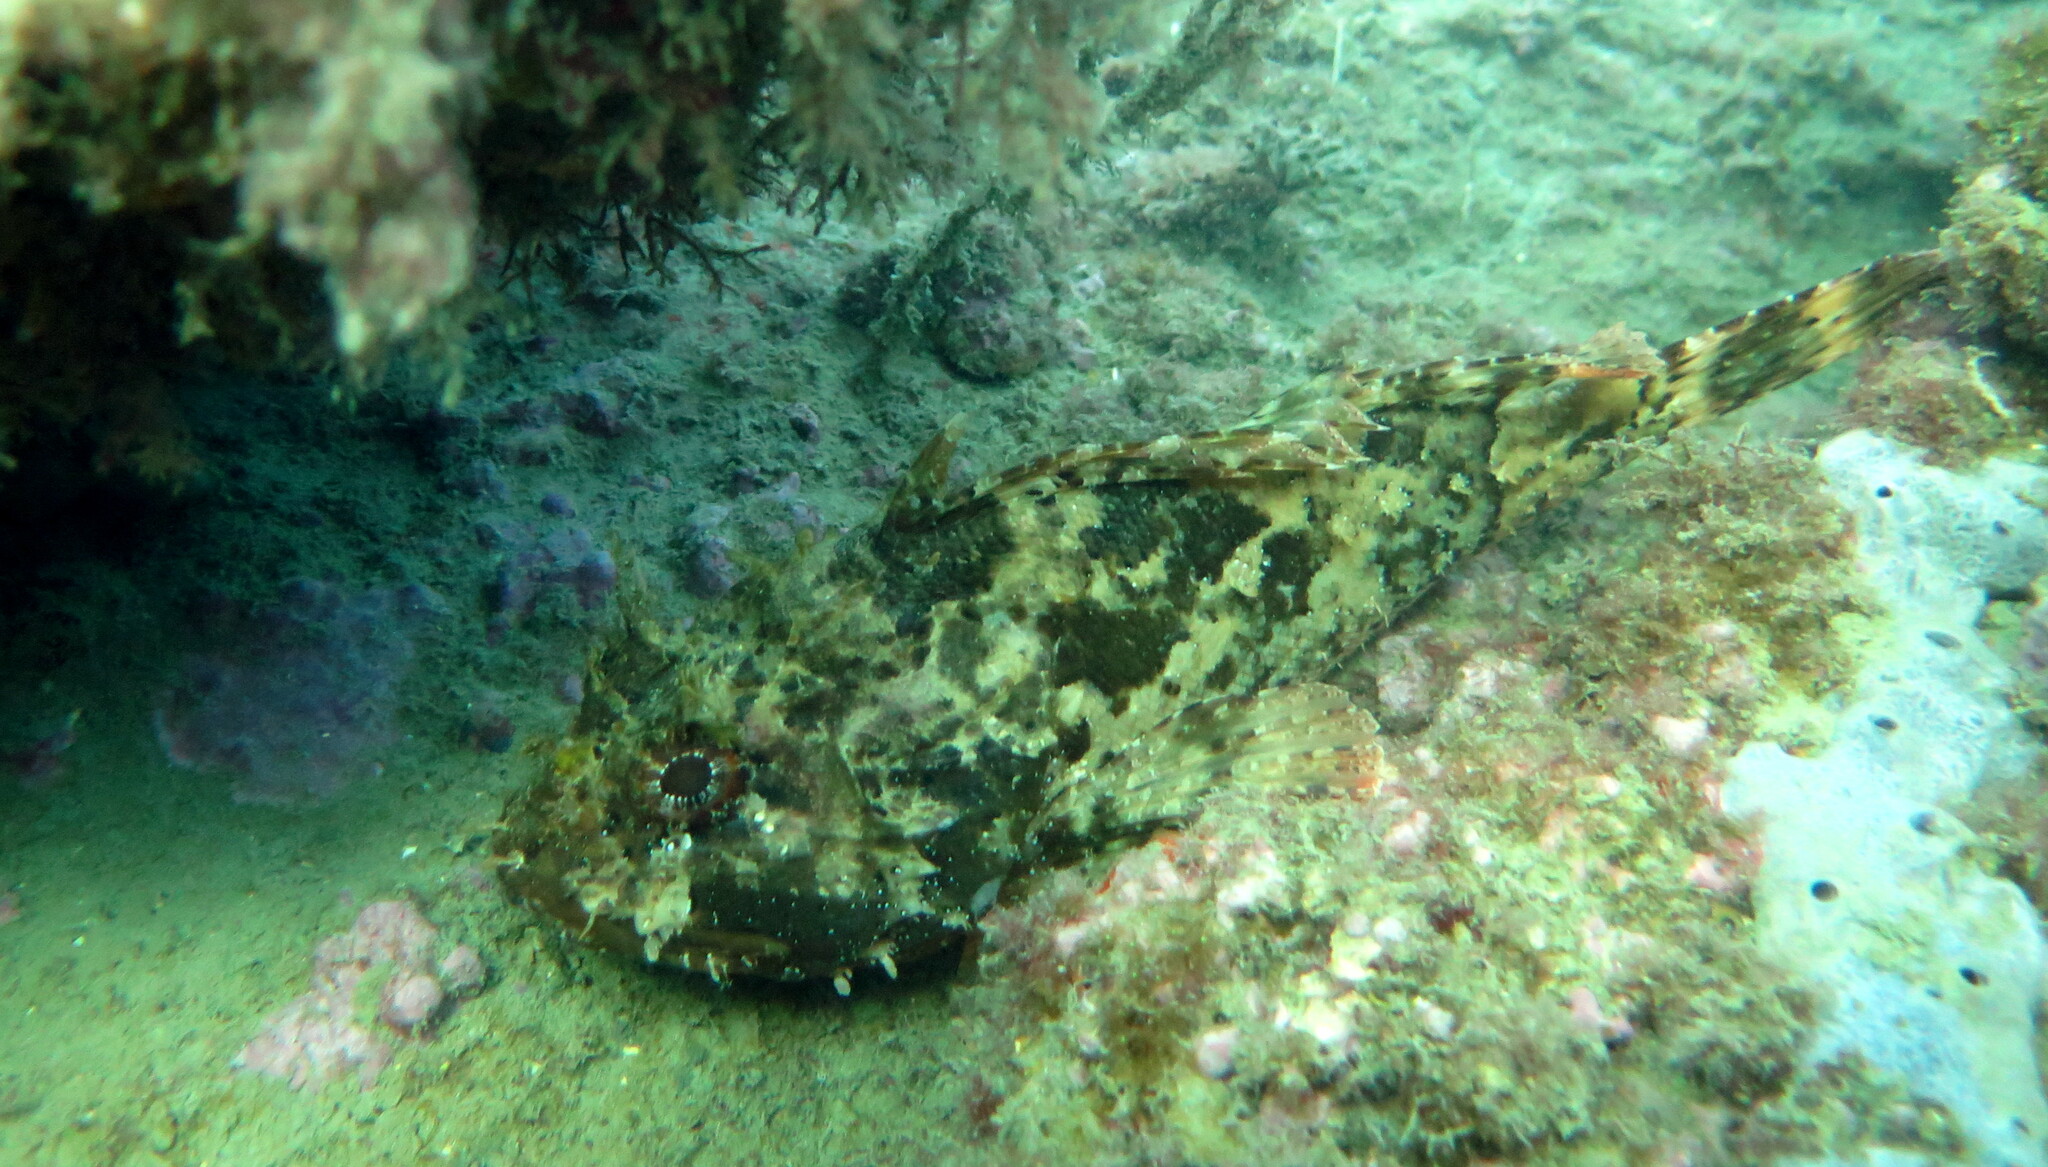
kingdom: Animalia
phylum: Chordata
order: Scorpaeniformes
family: Scorpaenidae
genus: Scorpaena
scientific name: Scorpaena porcus
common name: Black scorpionfish
